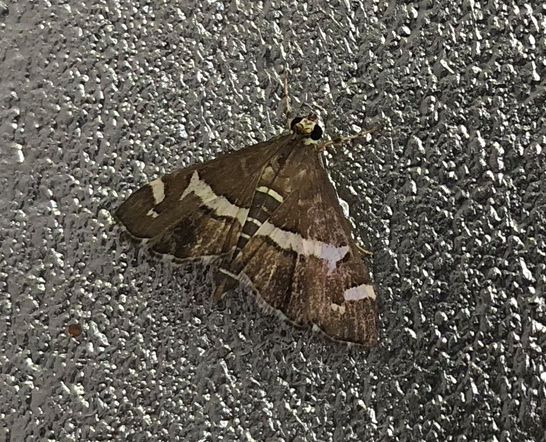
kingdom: Animalia
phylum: Arthropoda
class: Insecta
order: Lepidoptera
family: Crambidae
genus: Spoladea
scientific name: Spoladea recurvalis
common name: Beet webworm moth
